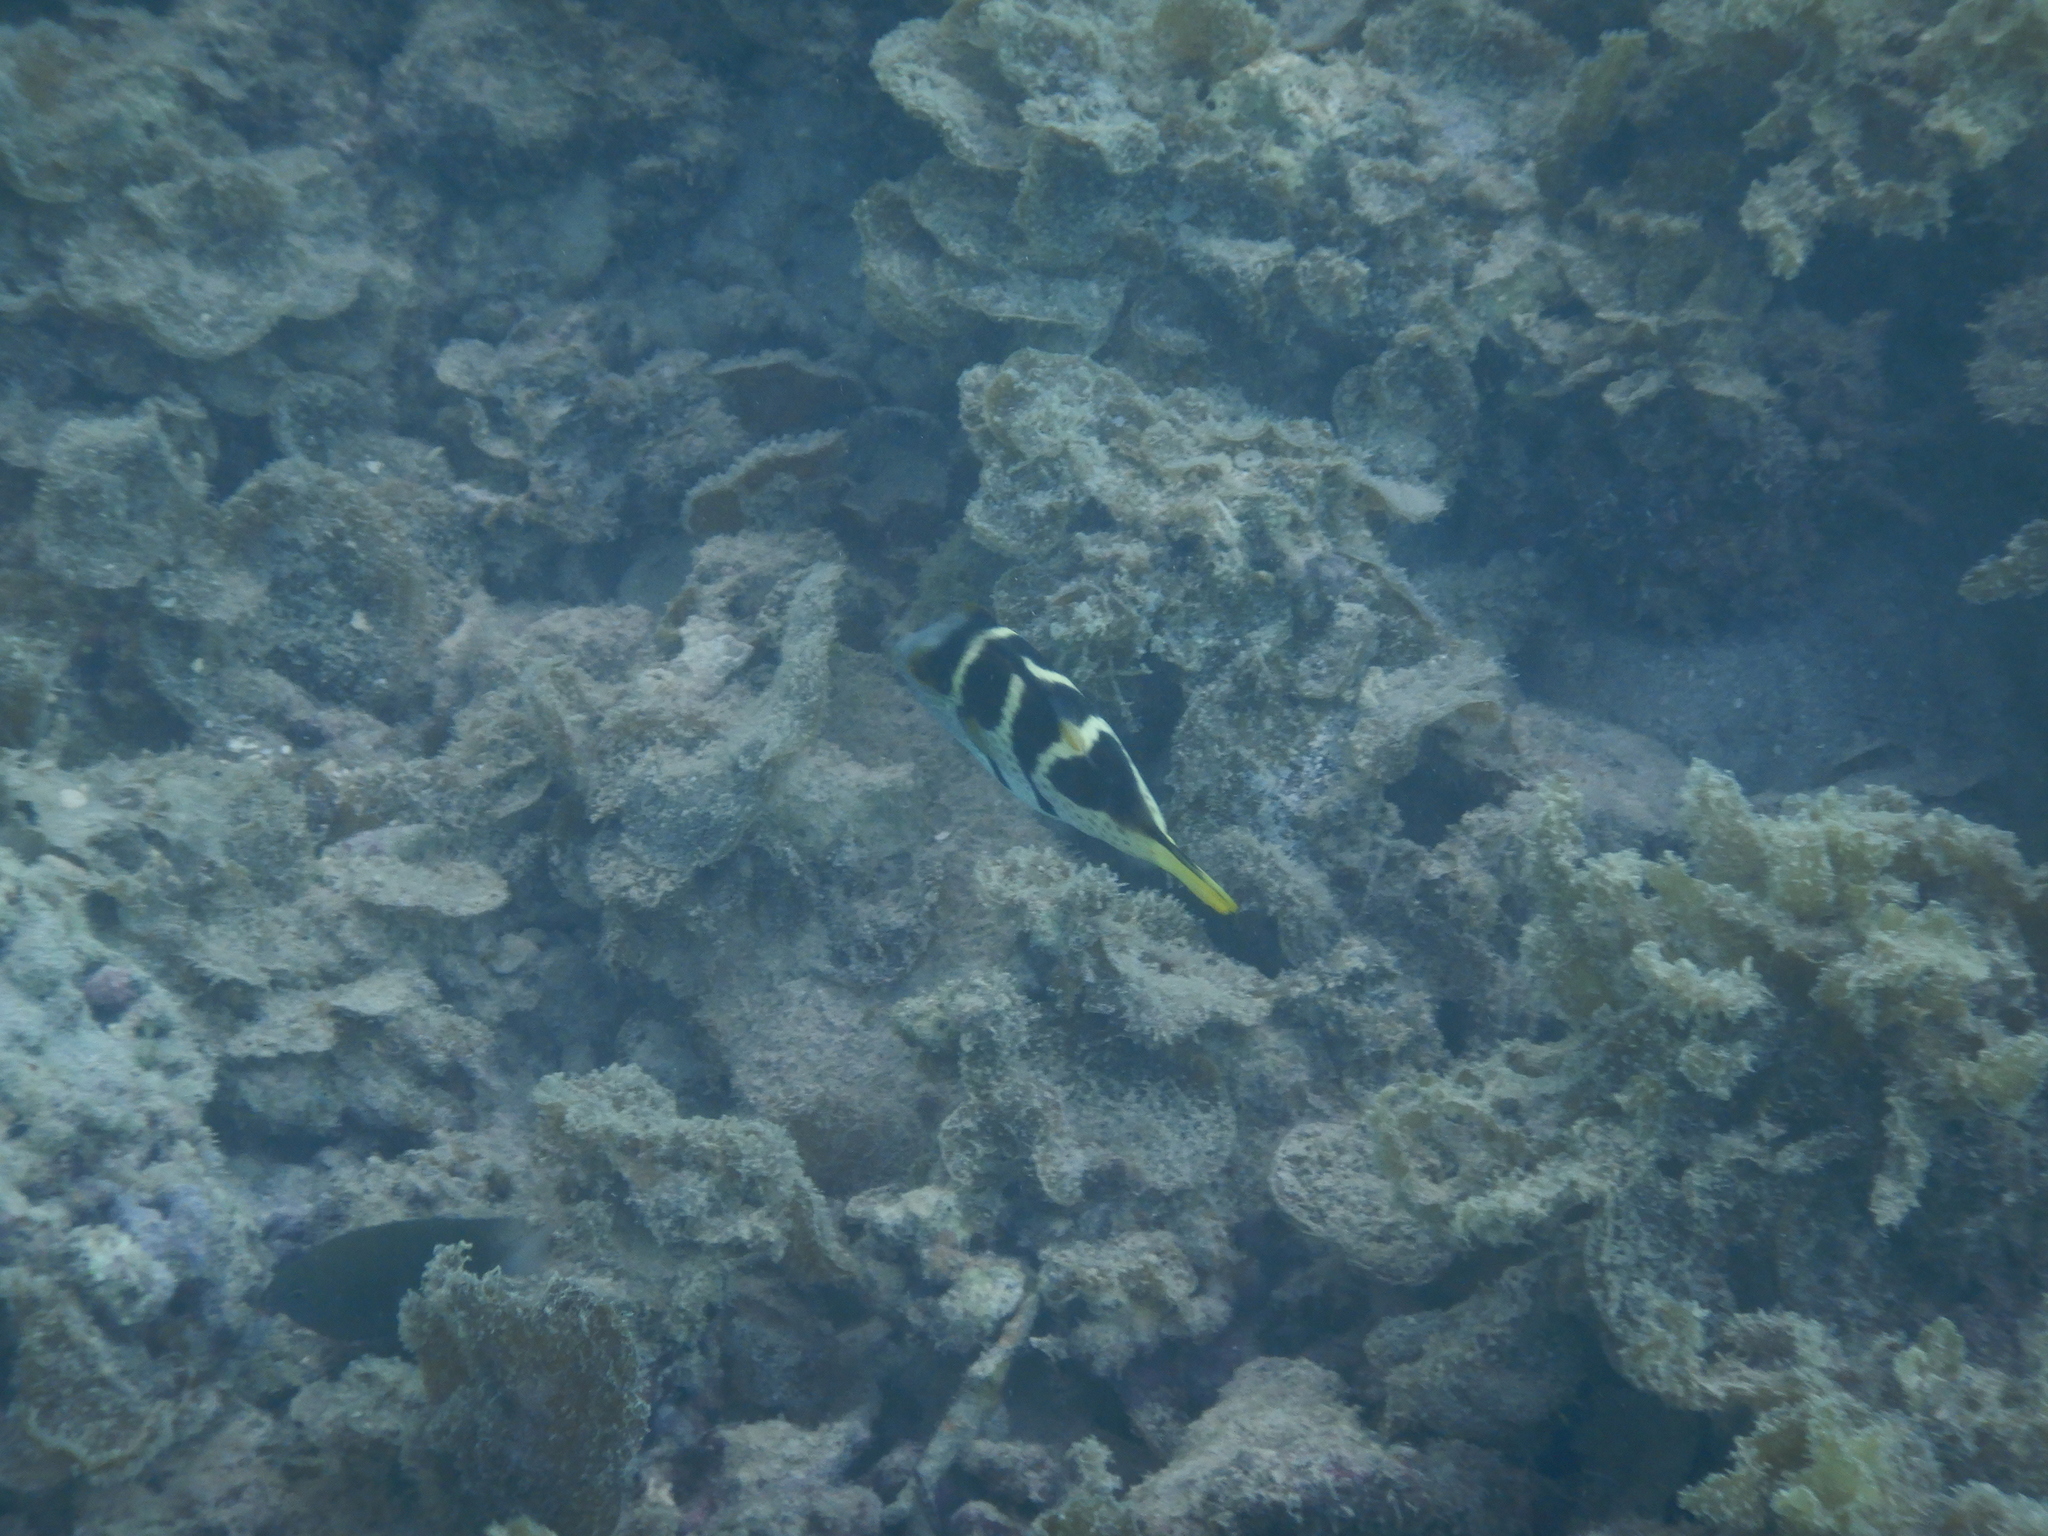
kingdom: Animalia
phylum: Chordata
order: Tetraodontiformes
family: Tetraodontidae
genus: Canthigaster
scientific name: Canthigaster valentini
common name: Banded toby
